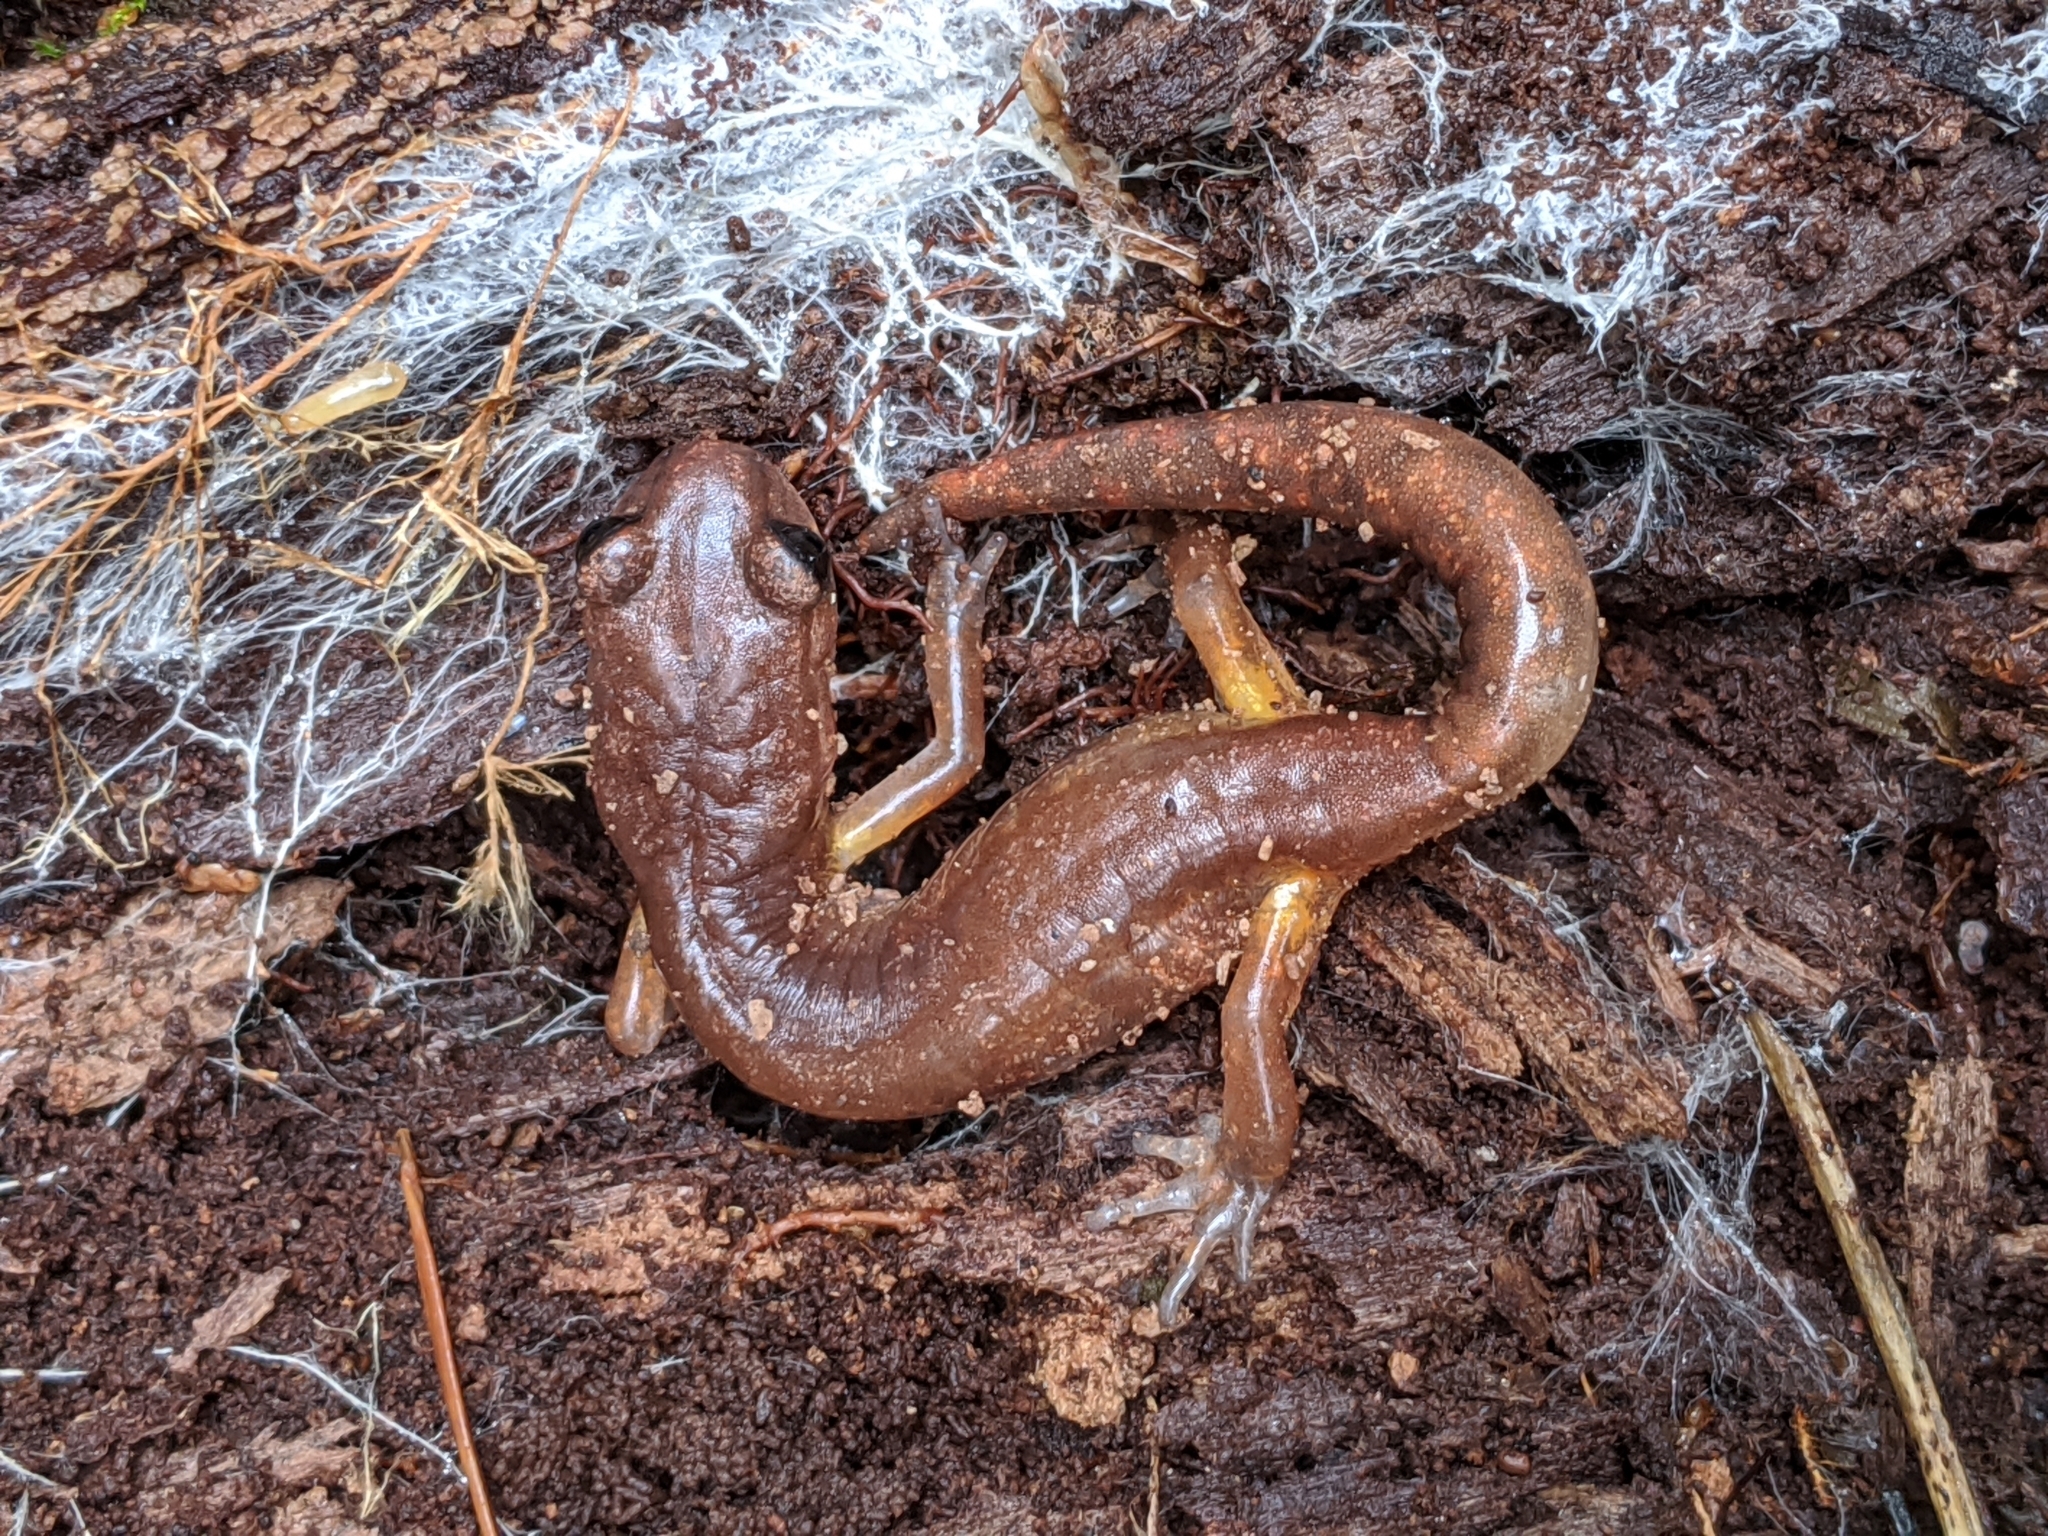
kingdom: Animalia
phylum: Chordata
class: Amphibia
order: Caudata
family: Plethodontidae
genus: Ensatina
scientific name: Ensatina eschscholtzii
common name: Ensatina
